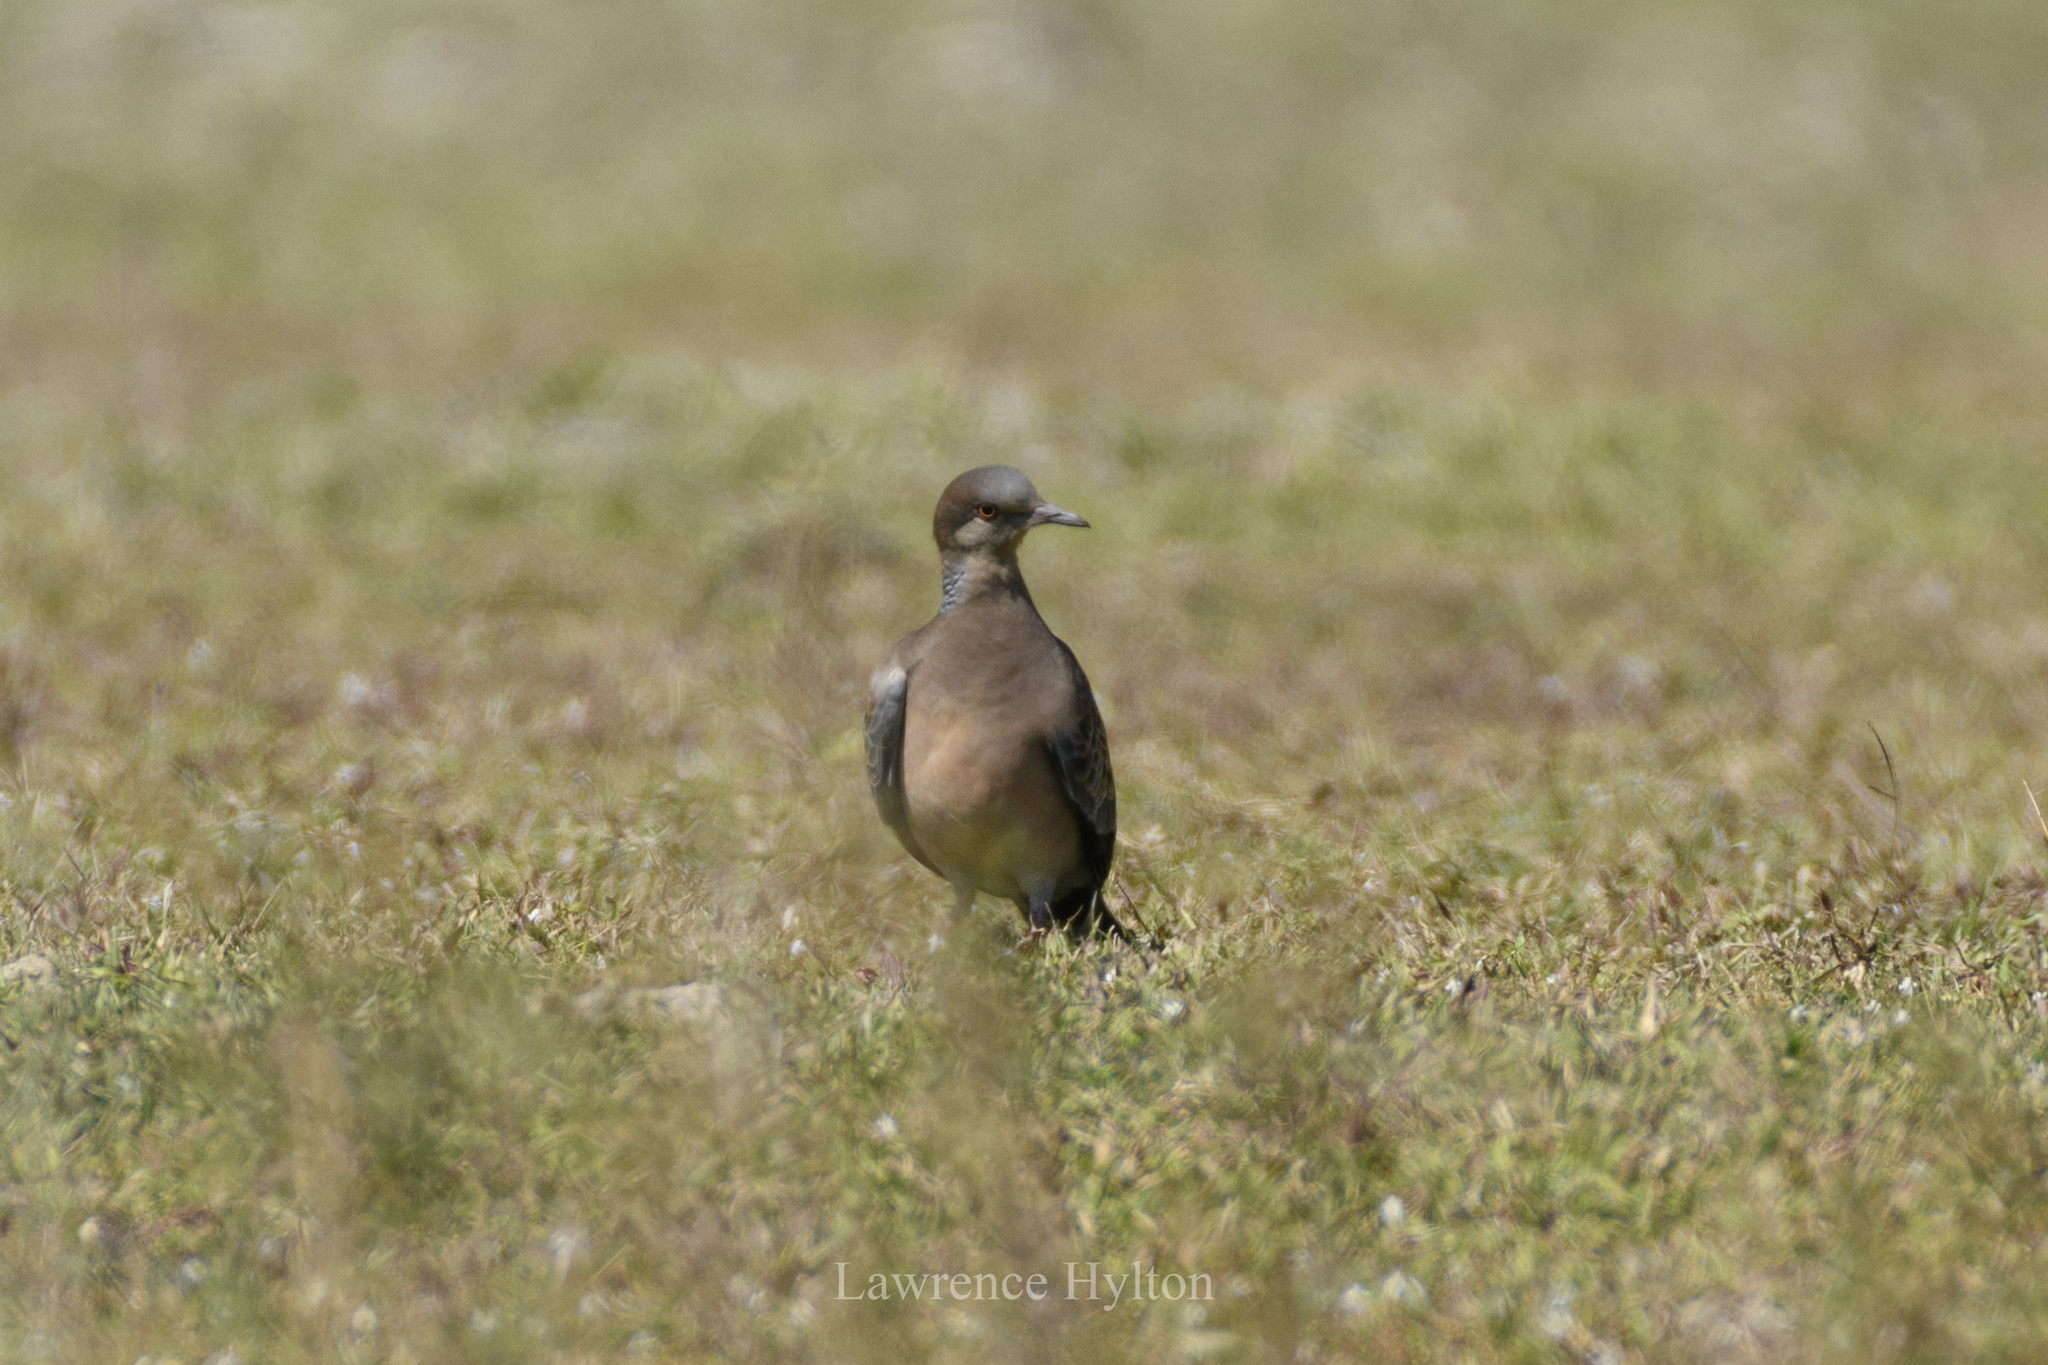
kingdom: Animalia
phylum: Chordata
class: Aves
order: Columbiformes
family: Columbidae
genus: Streptopelia
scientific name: Streptopelia orientalis
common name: Oriental turtle dove
